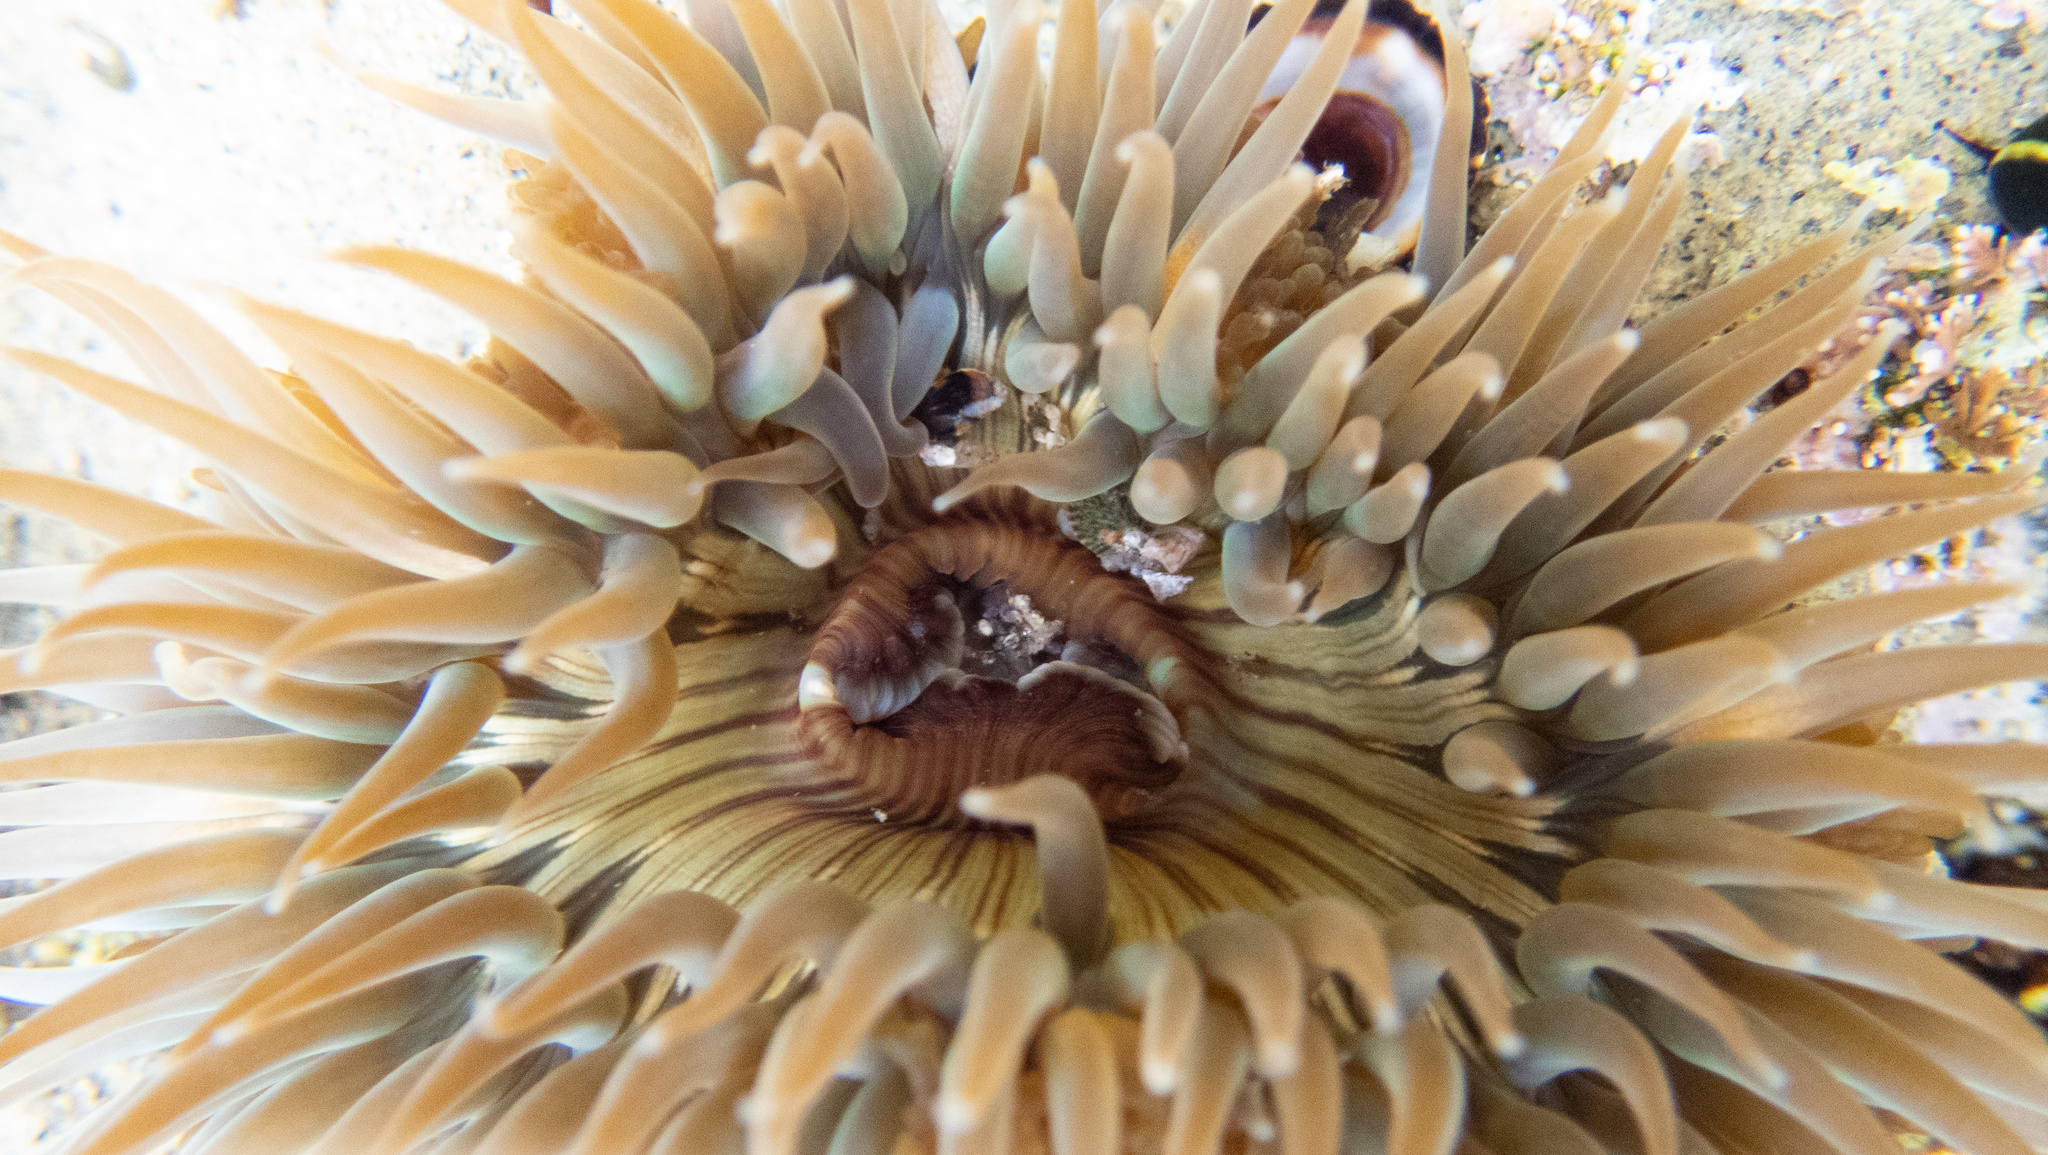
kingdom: Animalia
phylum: Cnidaria
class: Anthozoa
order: Actiniaria
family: Actiniidae
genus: Anthopleura
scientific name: Anthopleura sola
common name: Sun anemone
